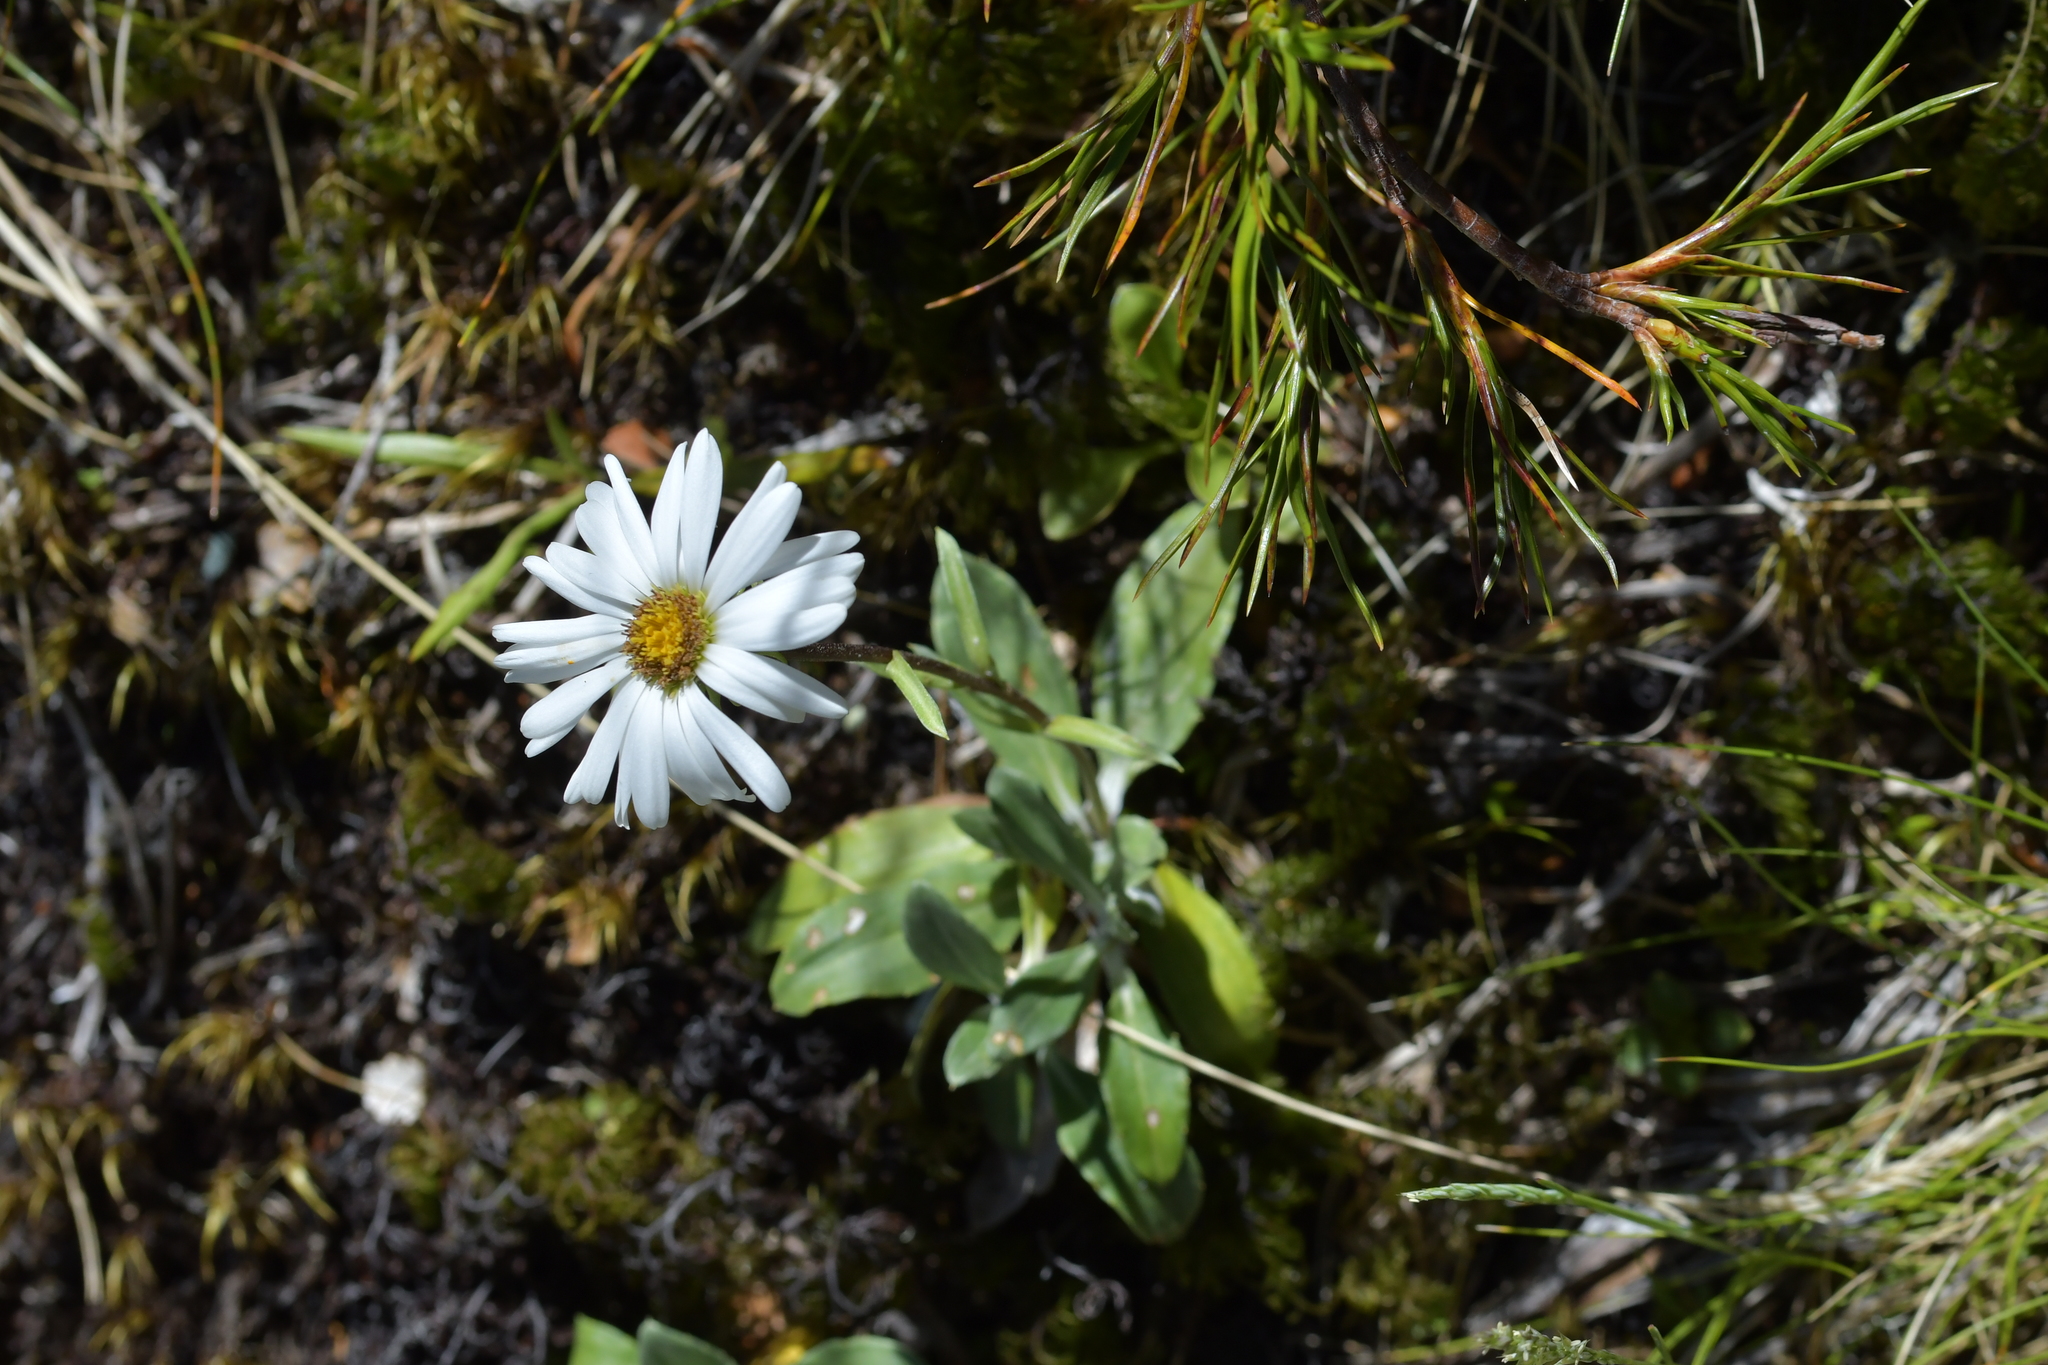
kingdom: Plantae
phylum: Tracheophyta
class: Magnoliopsida
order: Asterales
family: Asteraceae
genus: Celmisia
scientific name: Celmisia durietzii
